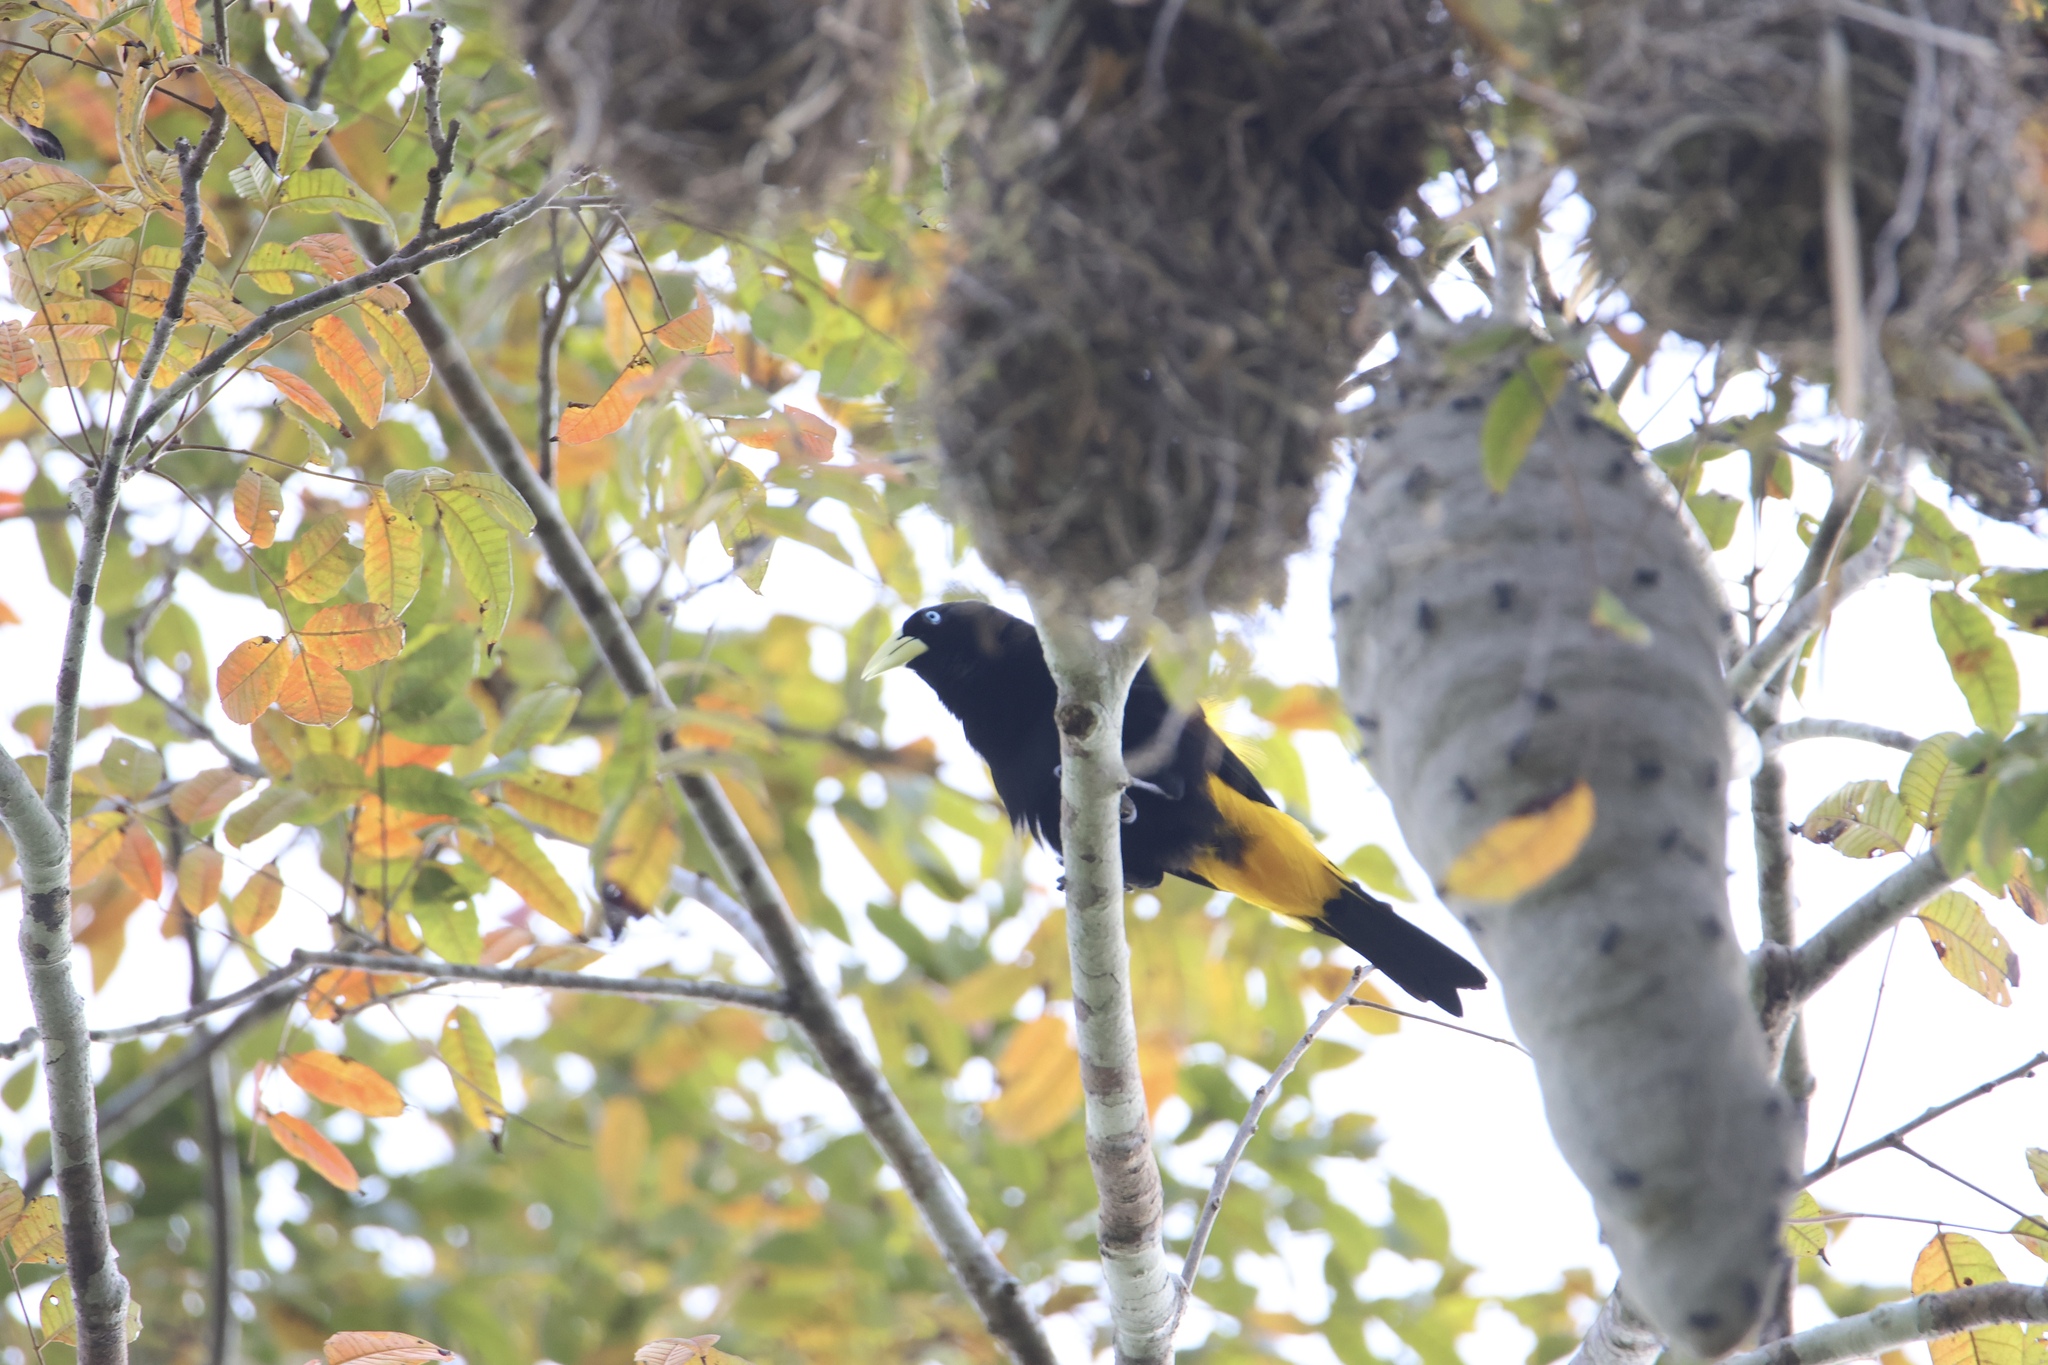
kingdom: Animalia
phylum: Chordata
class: Aves
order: Passeriformes
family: Icteridae
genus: Cacicus
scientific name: Cacicus cela
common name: Yellow-rumped cacique
